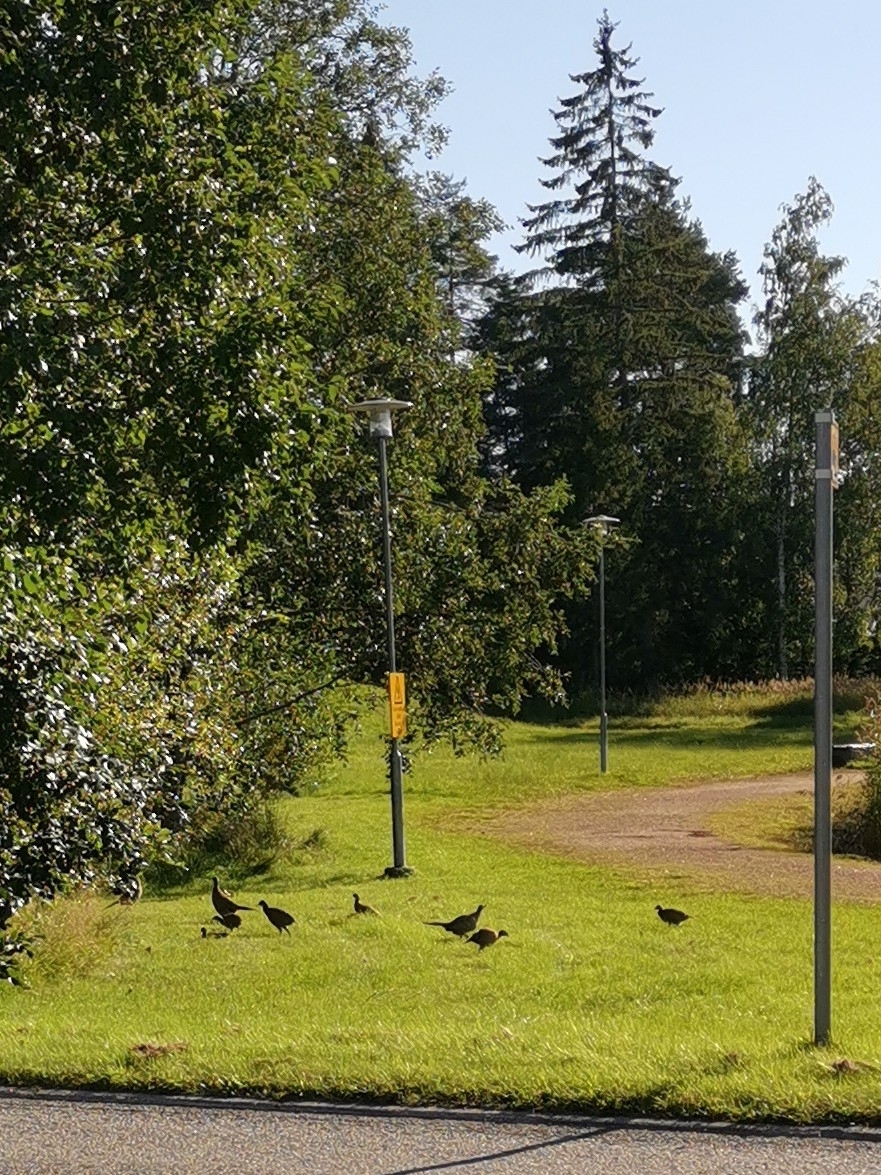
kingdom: Animalia
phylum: Chordata
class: Aves
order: Galliformes
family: Phasianidae
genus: Phasianus
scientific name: Phasianus colchicus
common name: Common pheasant
